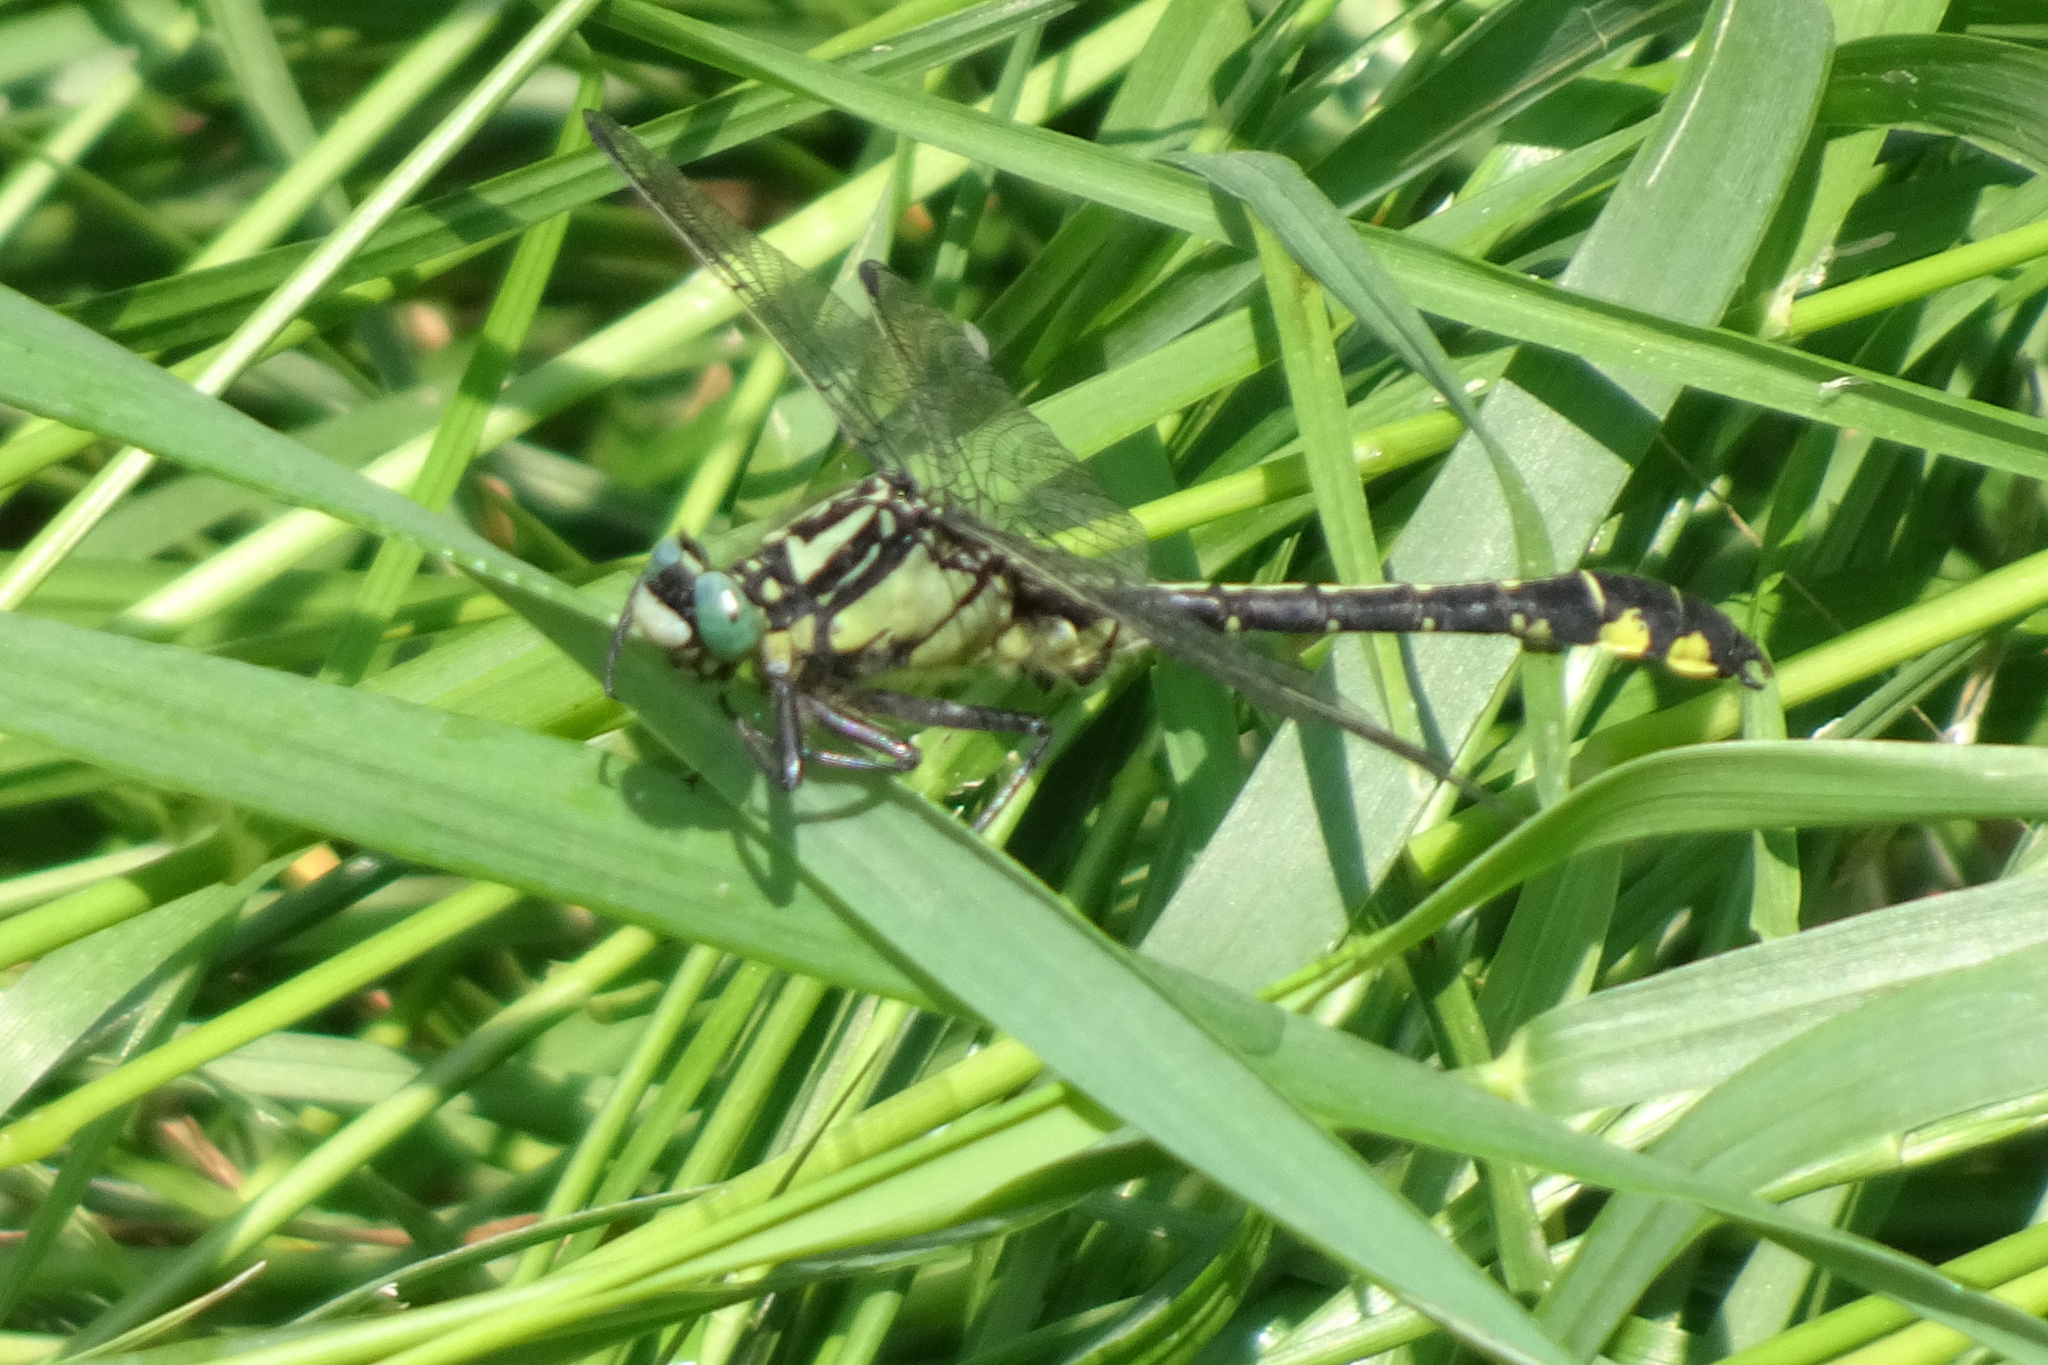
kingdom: Animalia
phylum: Arthropoda
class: Insecta
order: Odonata
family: Gomphidae
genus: Gomphus
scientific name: Gomphus vulgatissimus
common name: Club-tailed dragonfly
